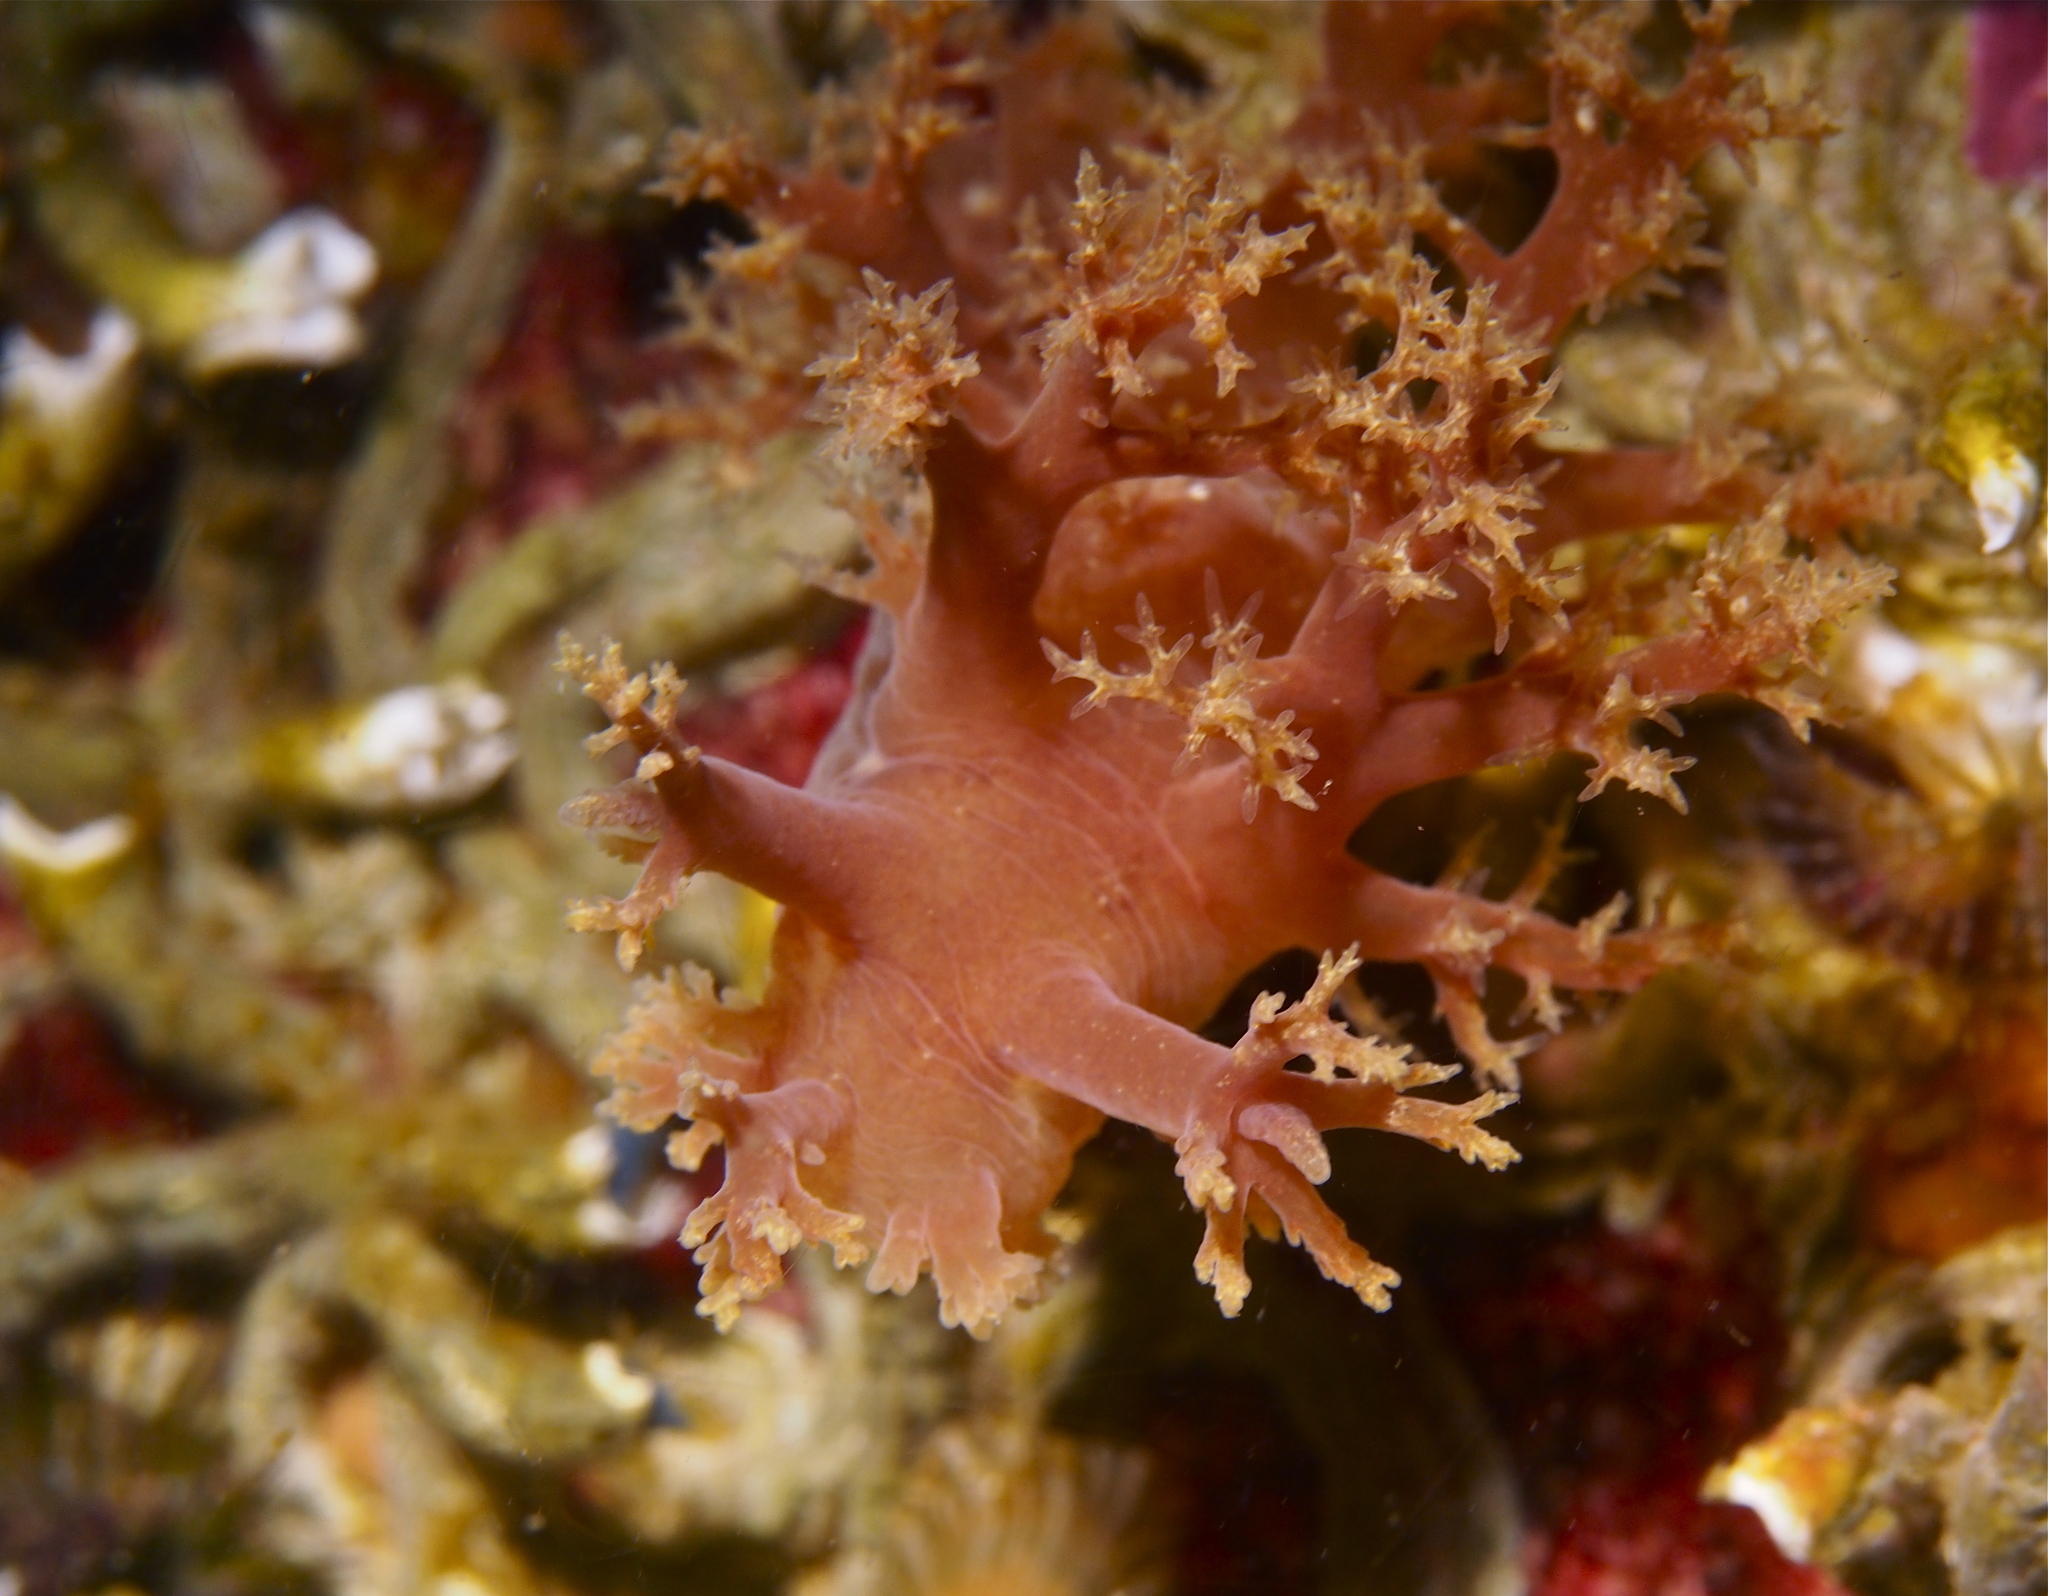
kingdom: Animalia
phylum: Mollusca
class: Gastropoda
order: Nudibranchia
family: Dendronotidae
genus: Dendronotus
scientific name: Dendronotus lacteus
